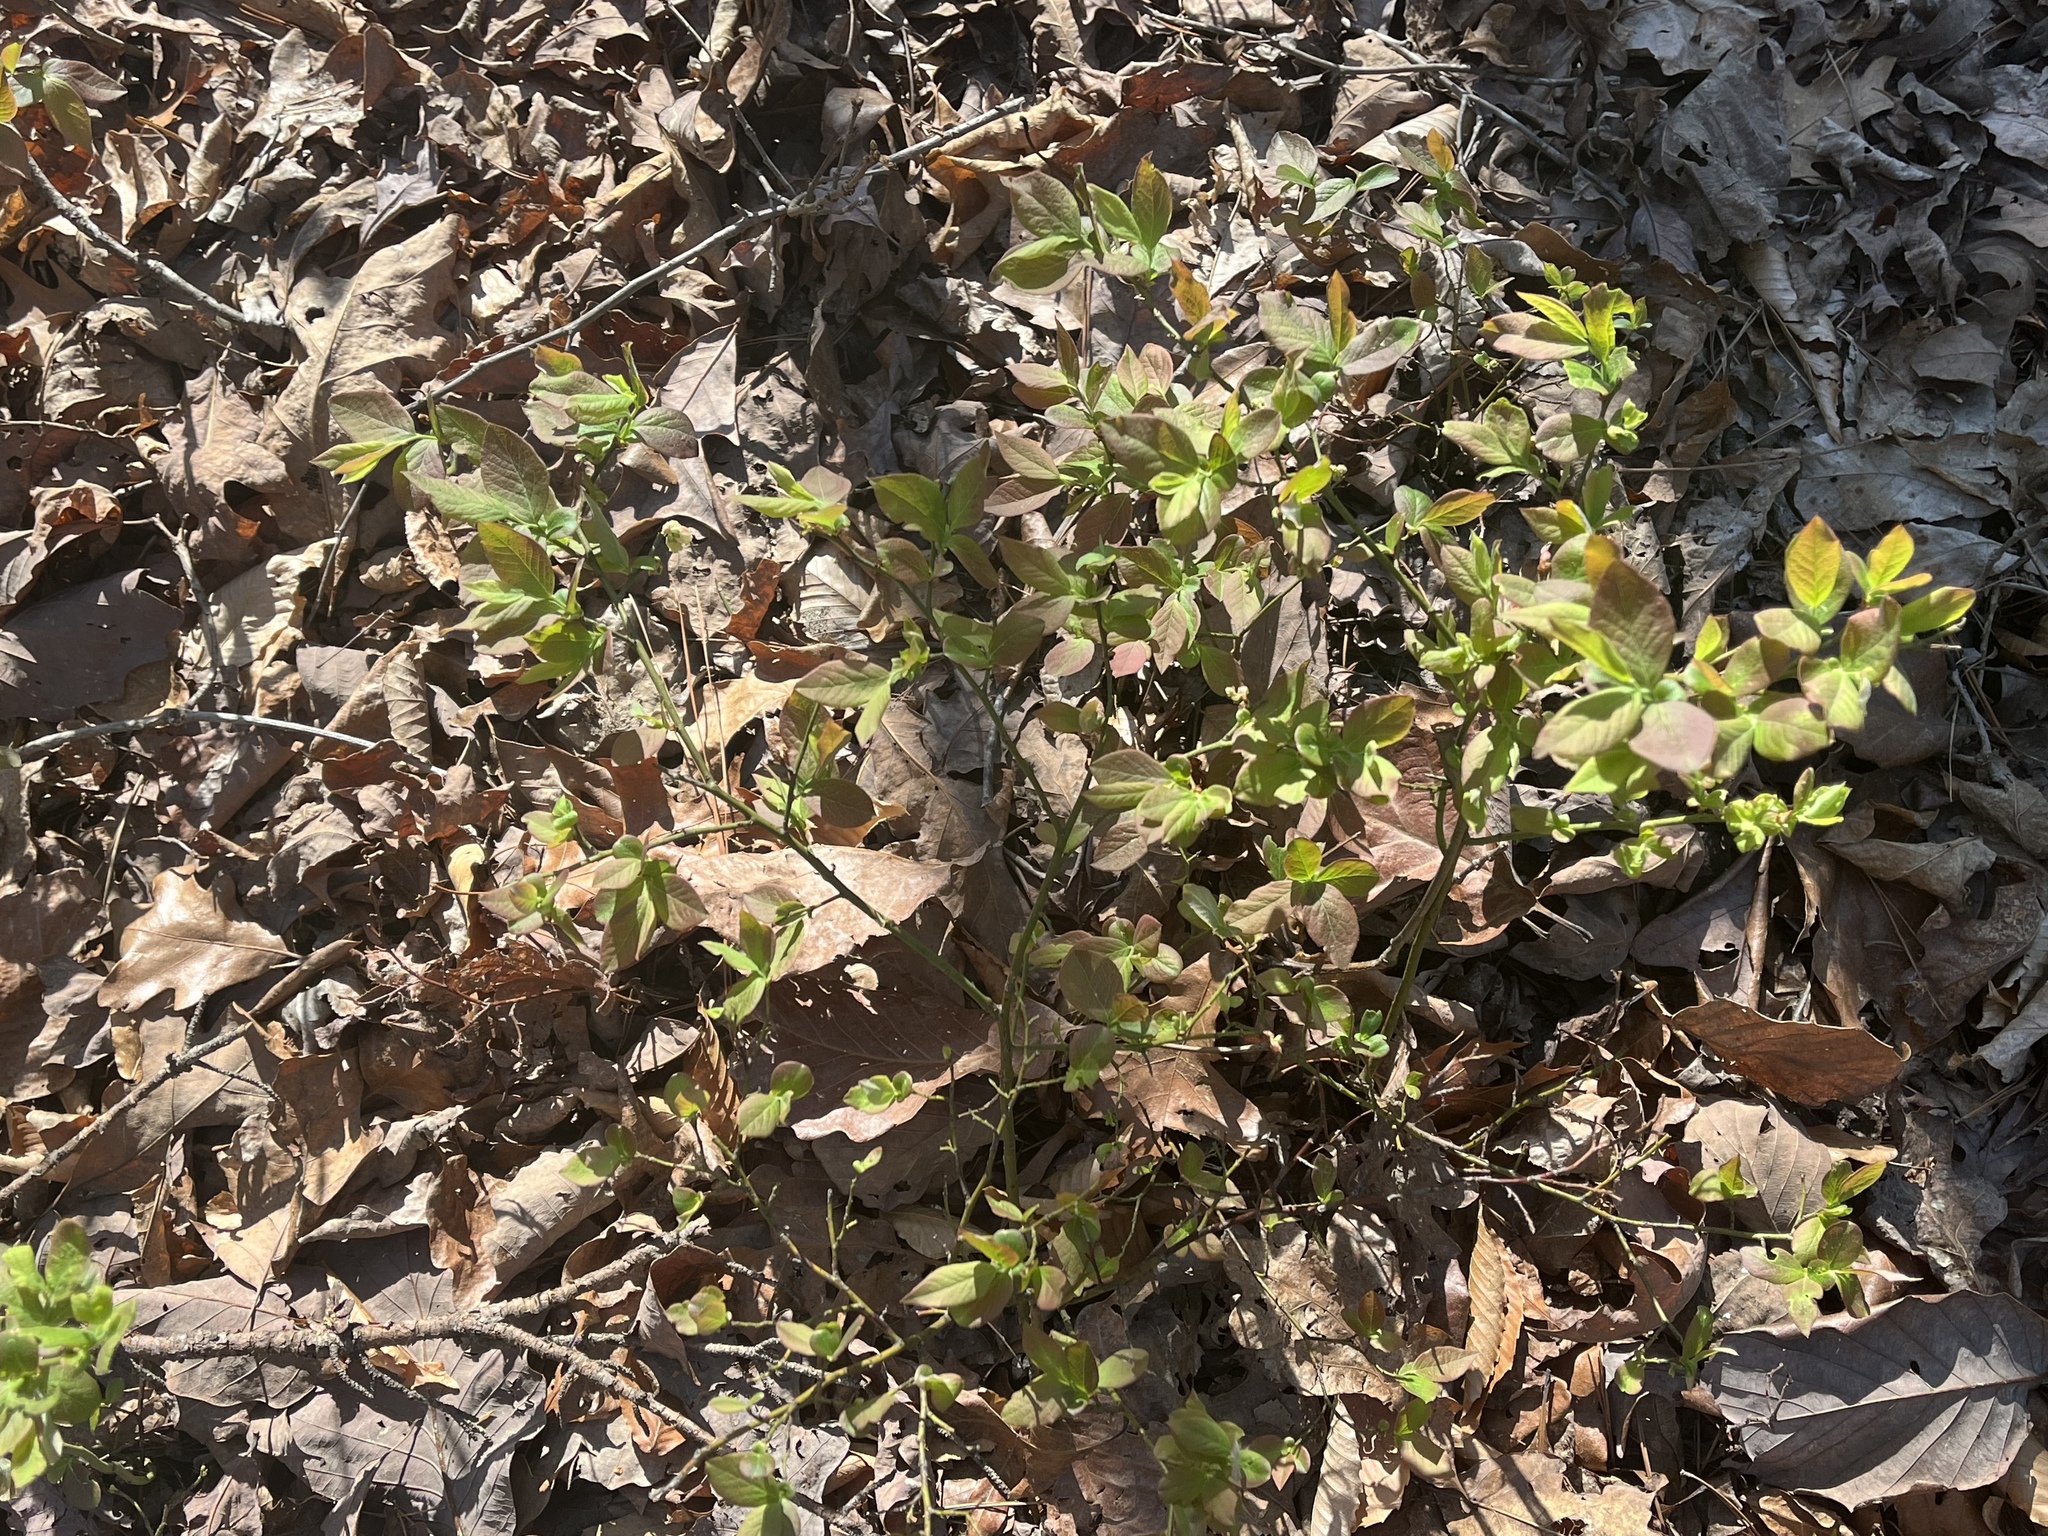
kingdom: Plantae
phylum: Tracheophyta
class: Magnoliopsida
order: Ericales
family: Ericaceae
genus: Vaccinium
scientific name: Vaccinium pallidum
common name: Blue ridge blueberry
